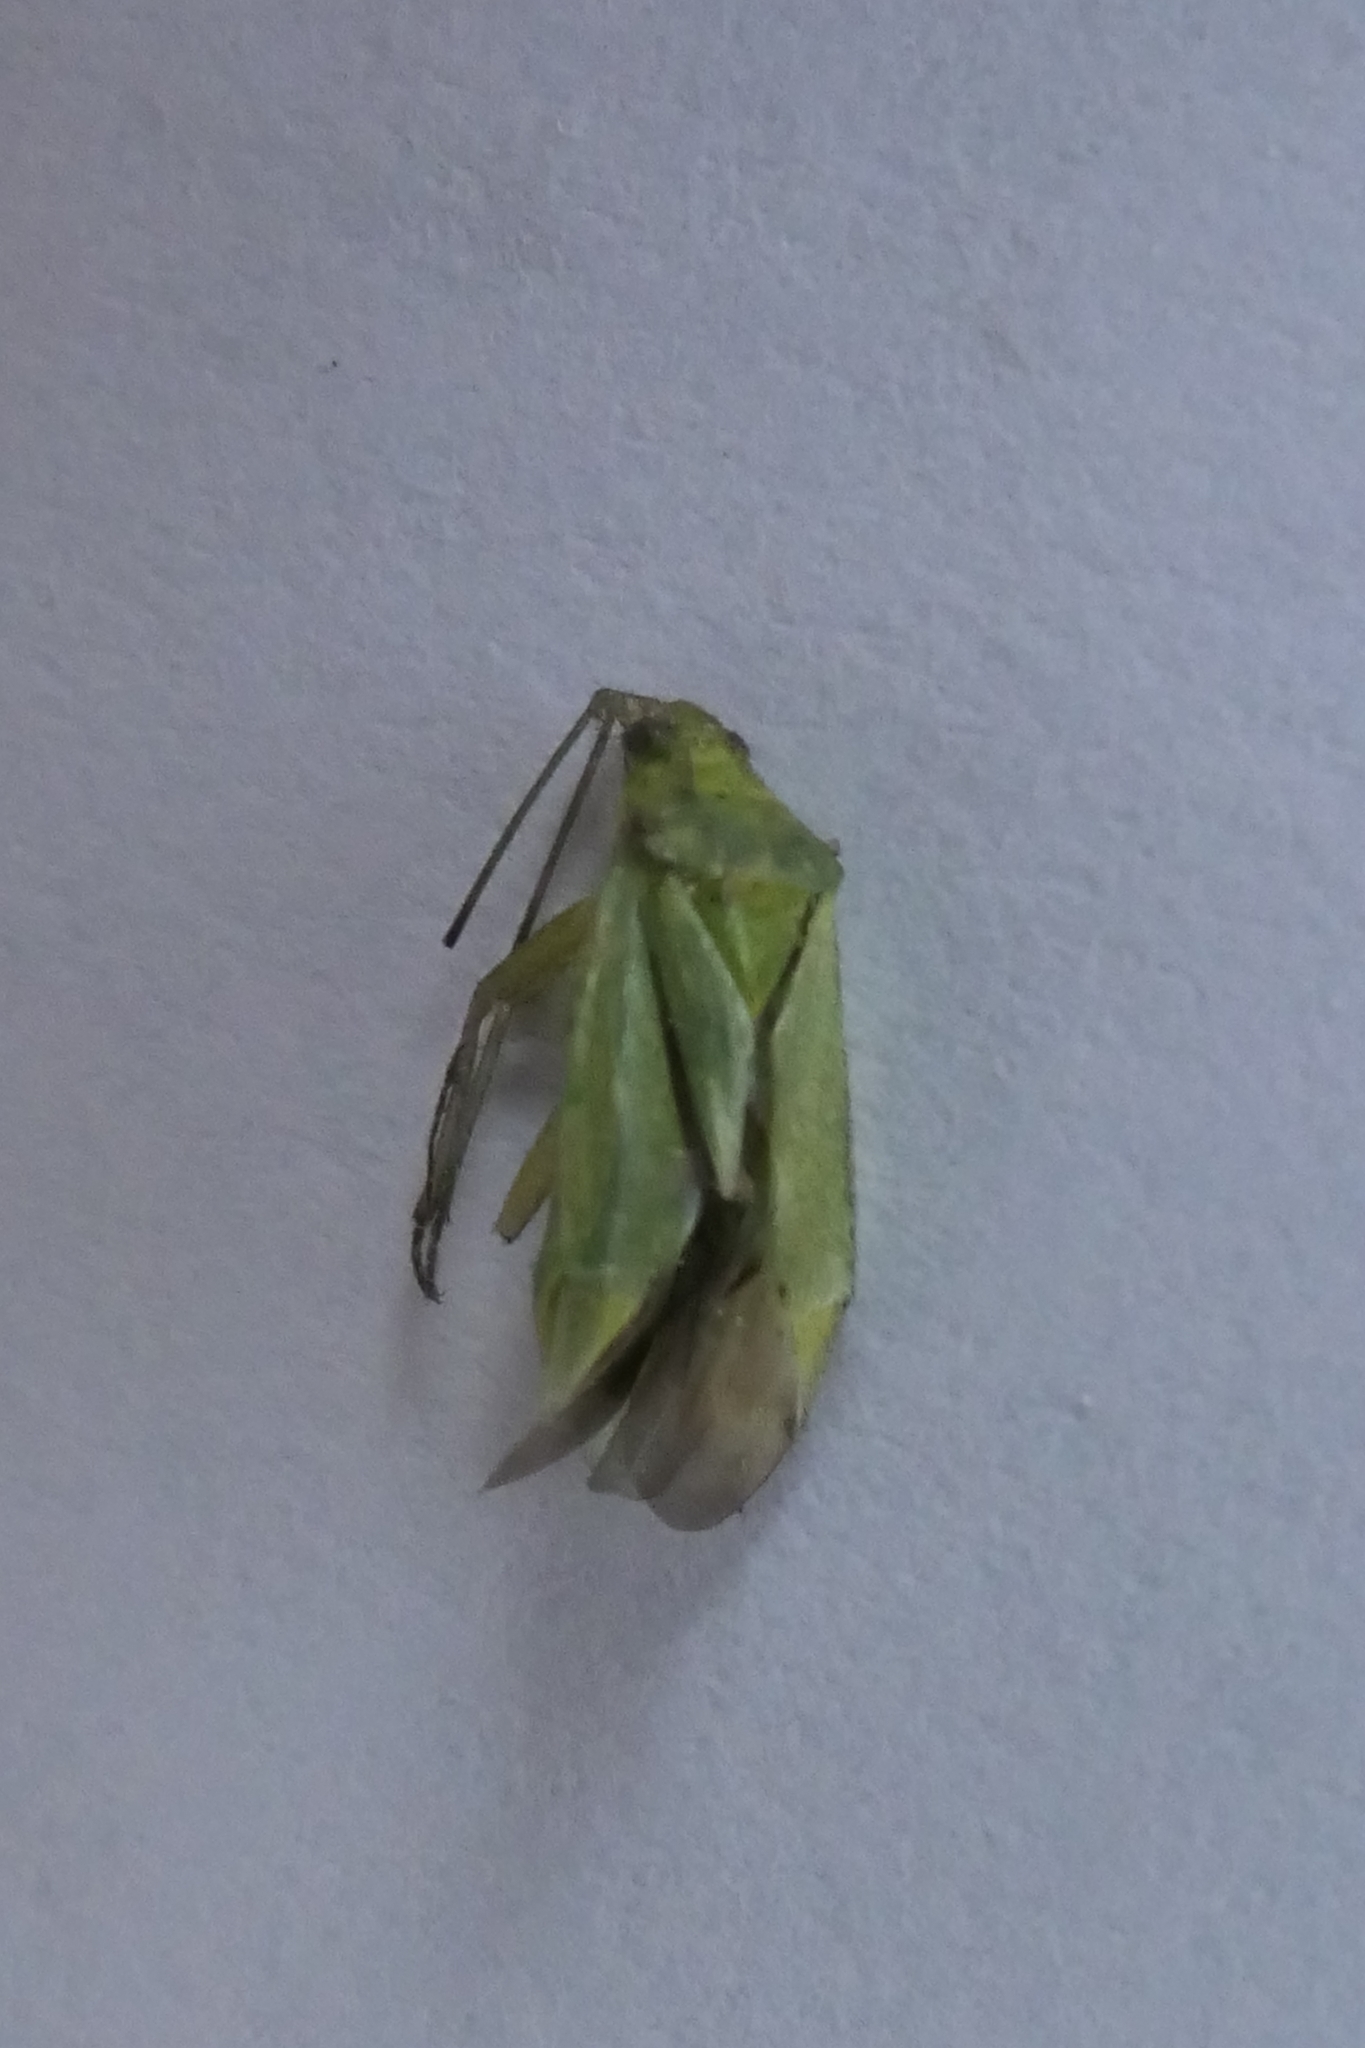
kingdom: Animalia
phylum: Arthropoda
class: Insecta
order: Hemiptera
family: Miridae
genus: Closterotomus
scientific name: Closterotomus norvegicus
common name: Plant bug
